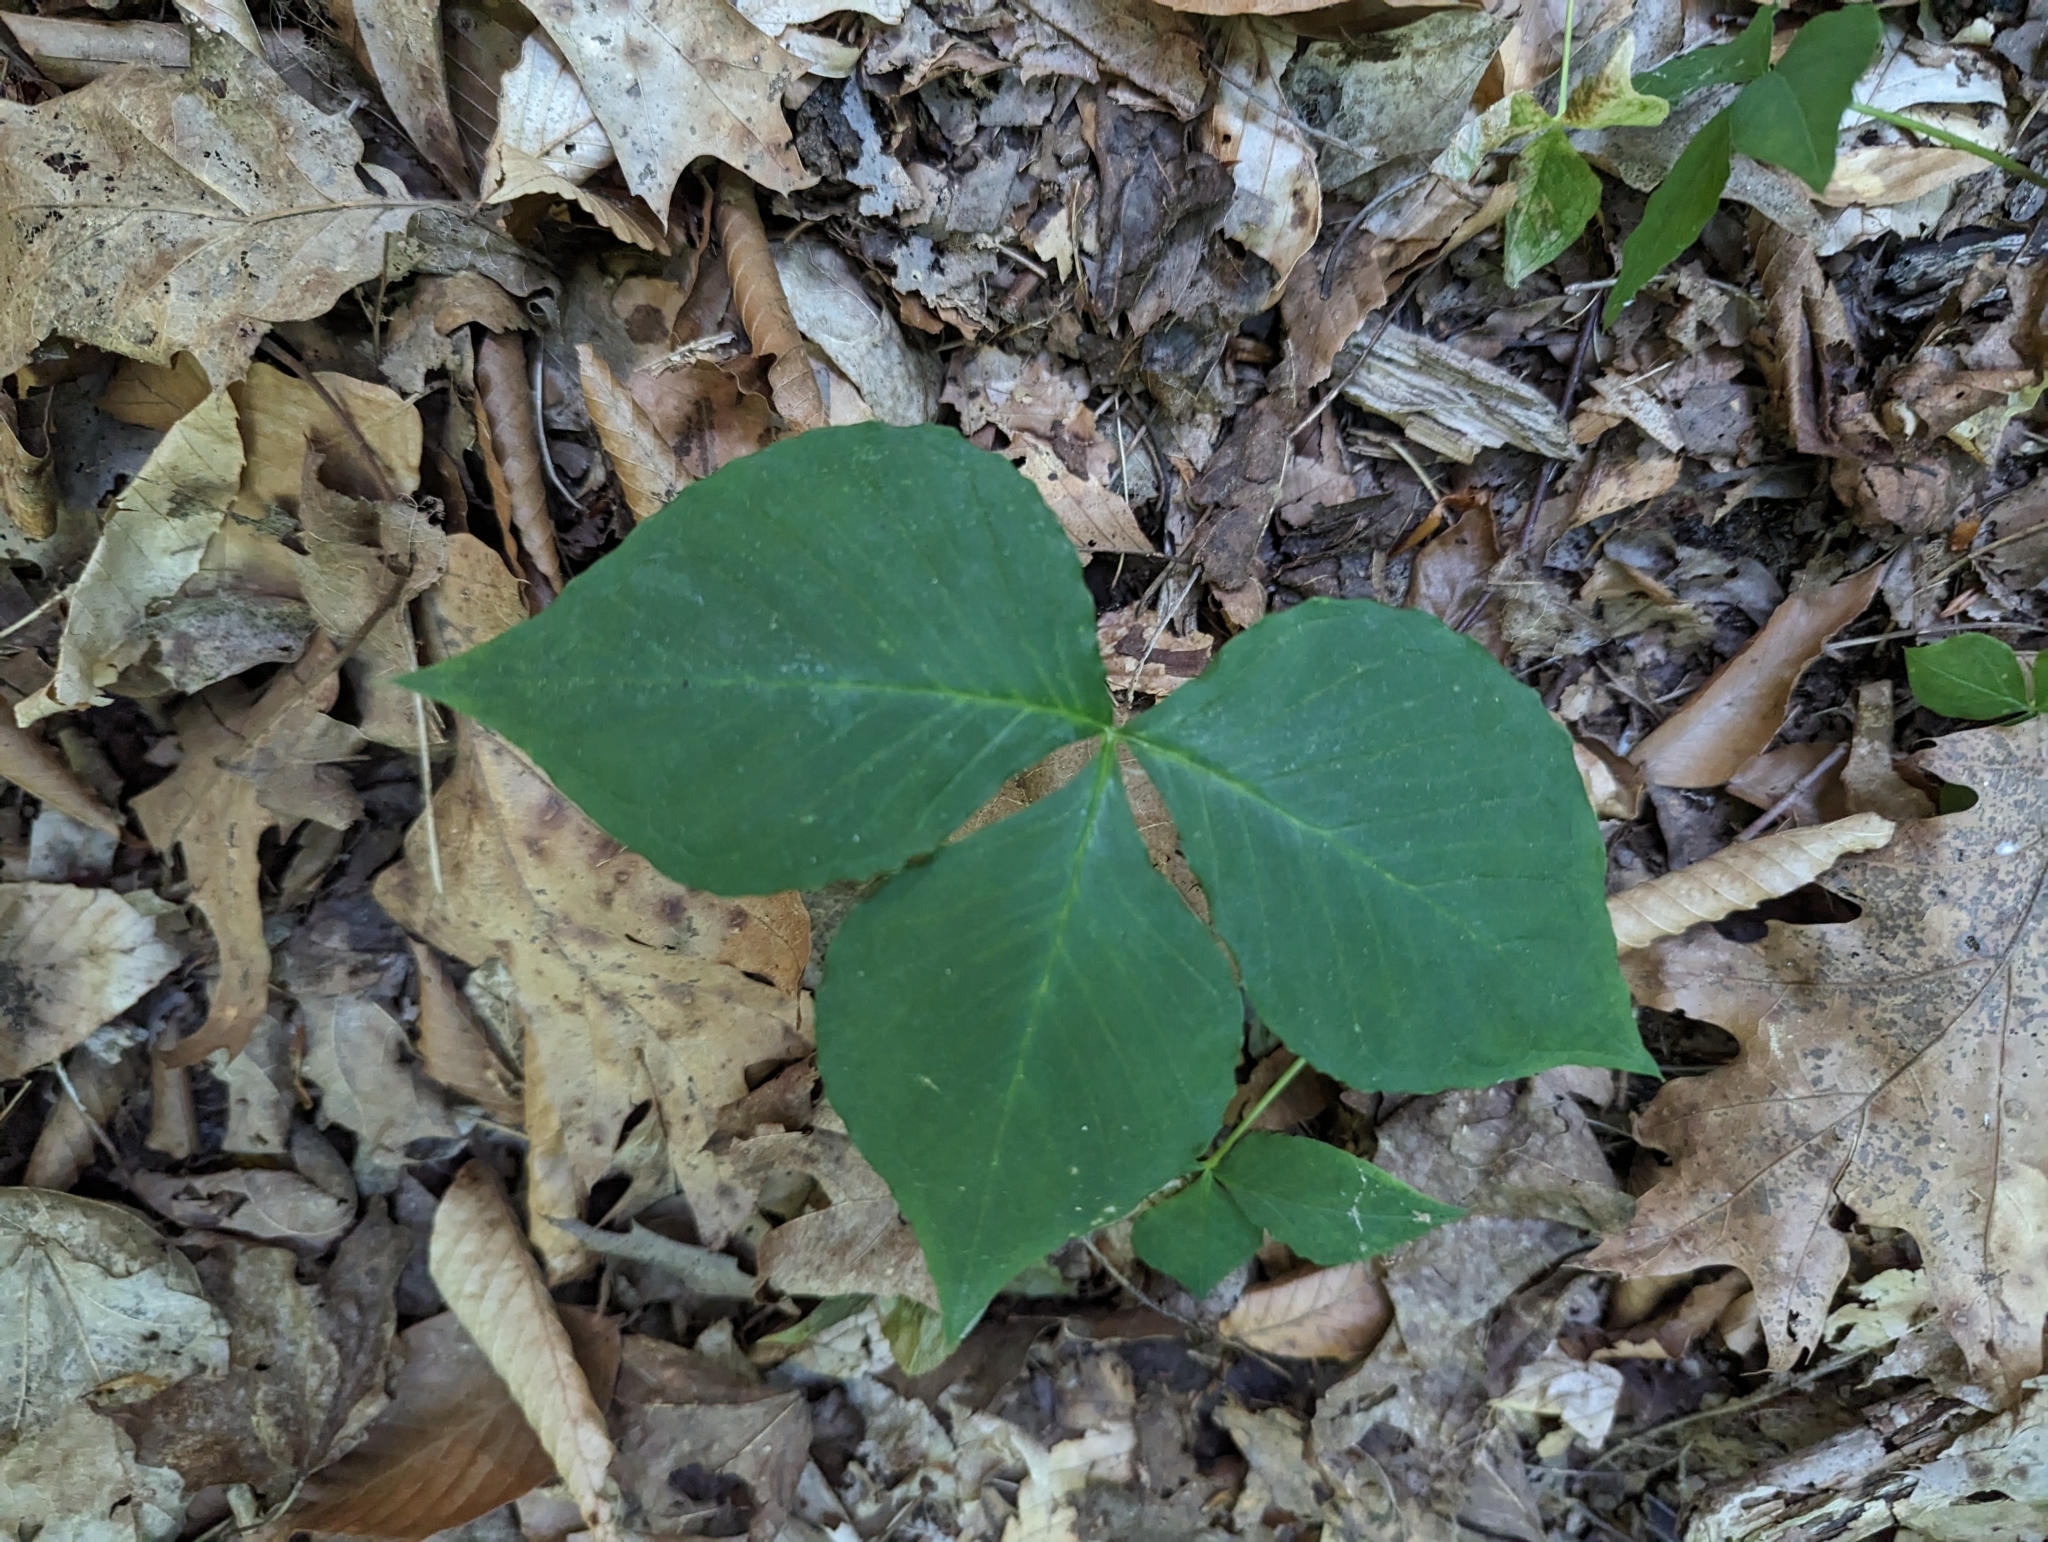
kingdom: Plantae
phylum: Tracheophyta
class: Liliopsida
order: Alismatales
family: Araceae
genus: Arisaema
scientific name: Arisaema triphyllum
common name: Jack-in-the-pulpit
